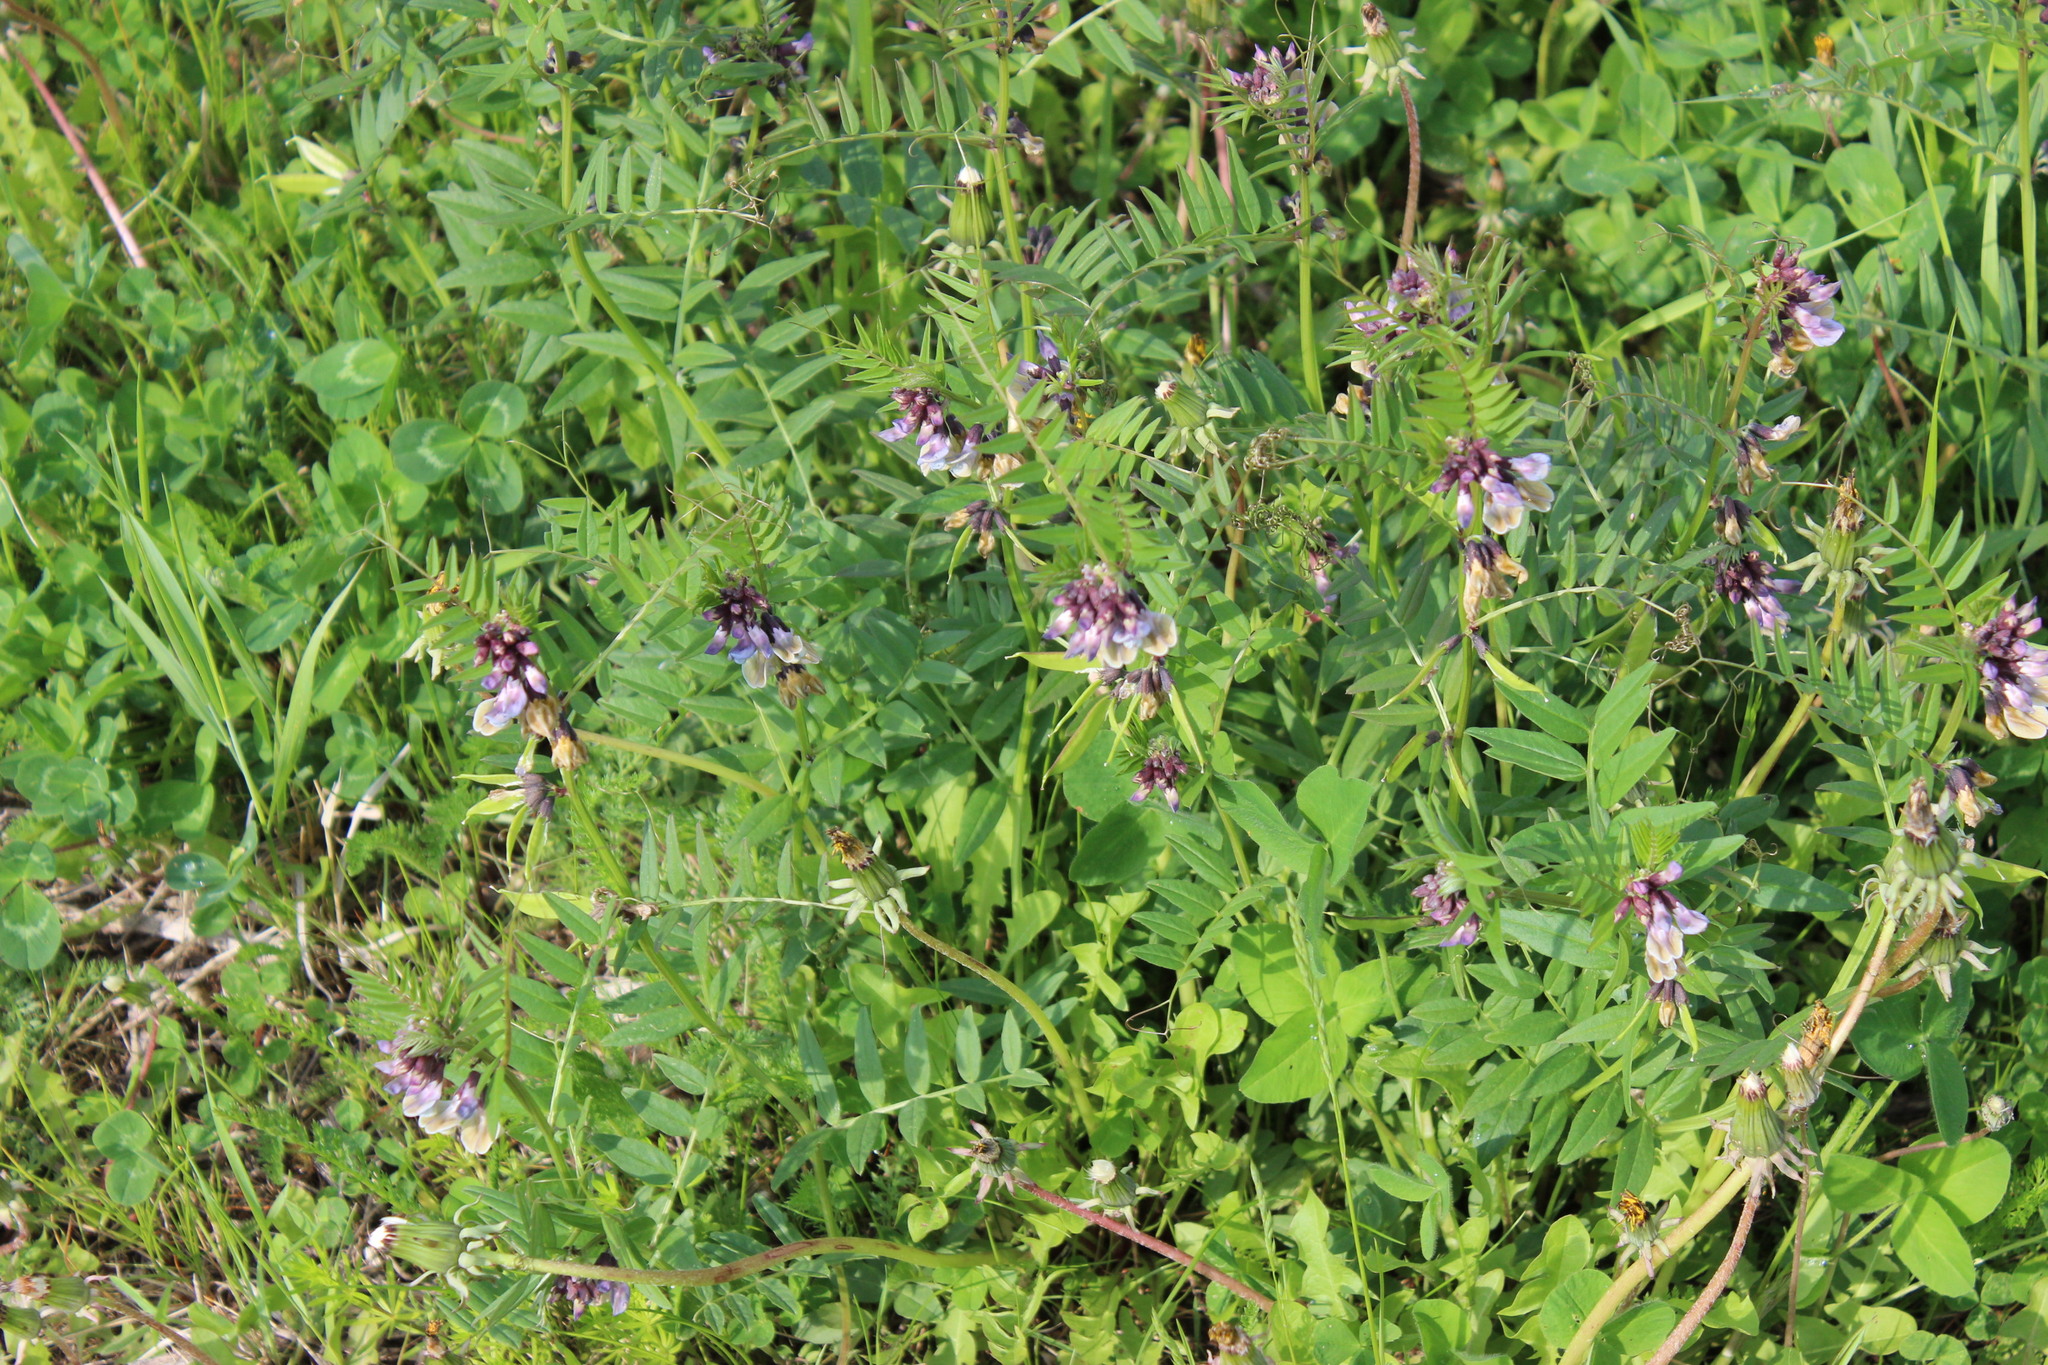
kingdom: Plantae
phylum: Tracheophyta
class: Magnoliopsida
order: Fabales
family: Fabaceae
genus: Vicia
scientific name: Vicia sepium
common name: Bush vetch
